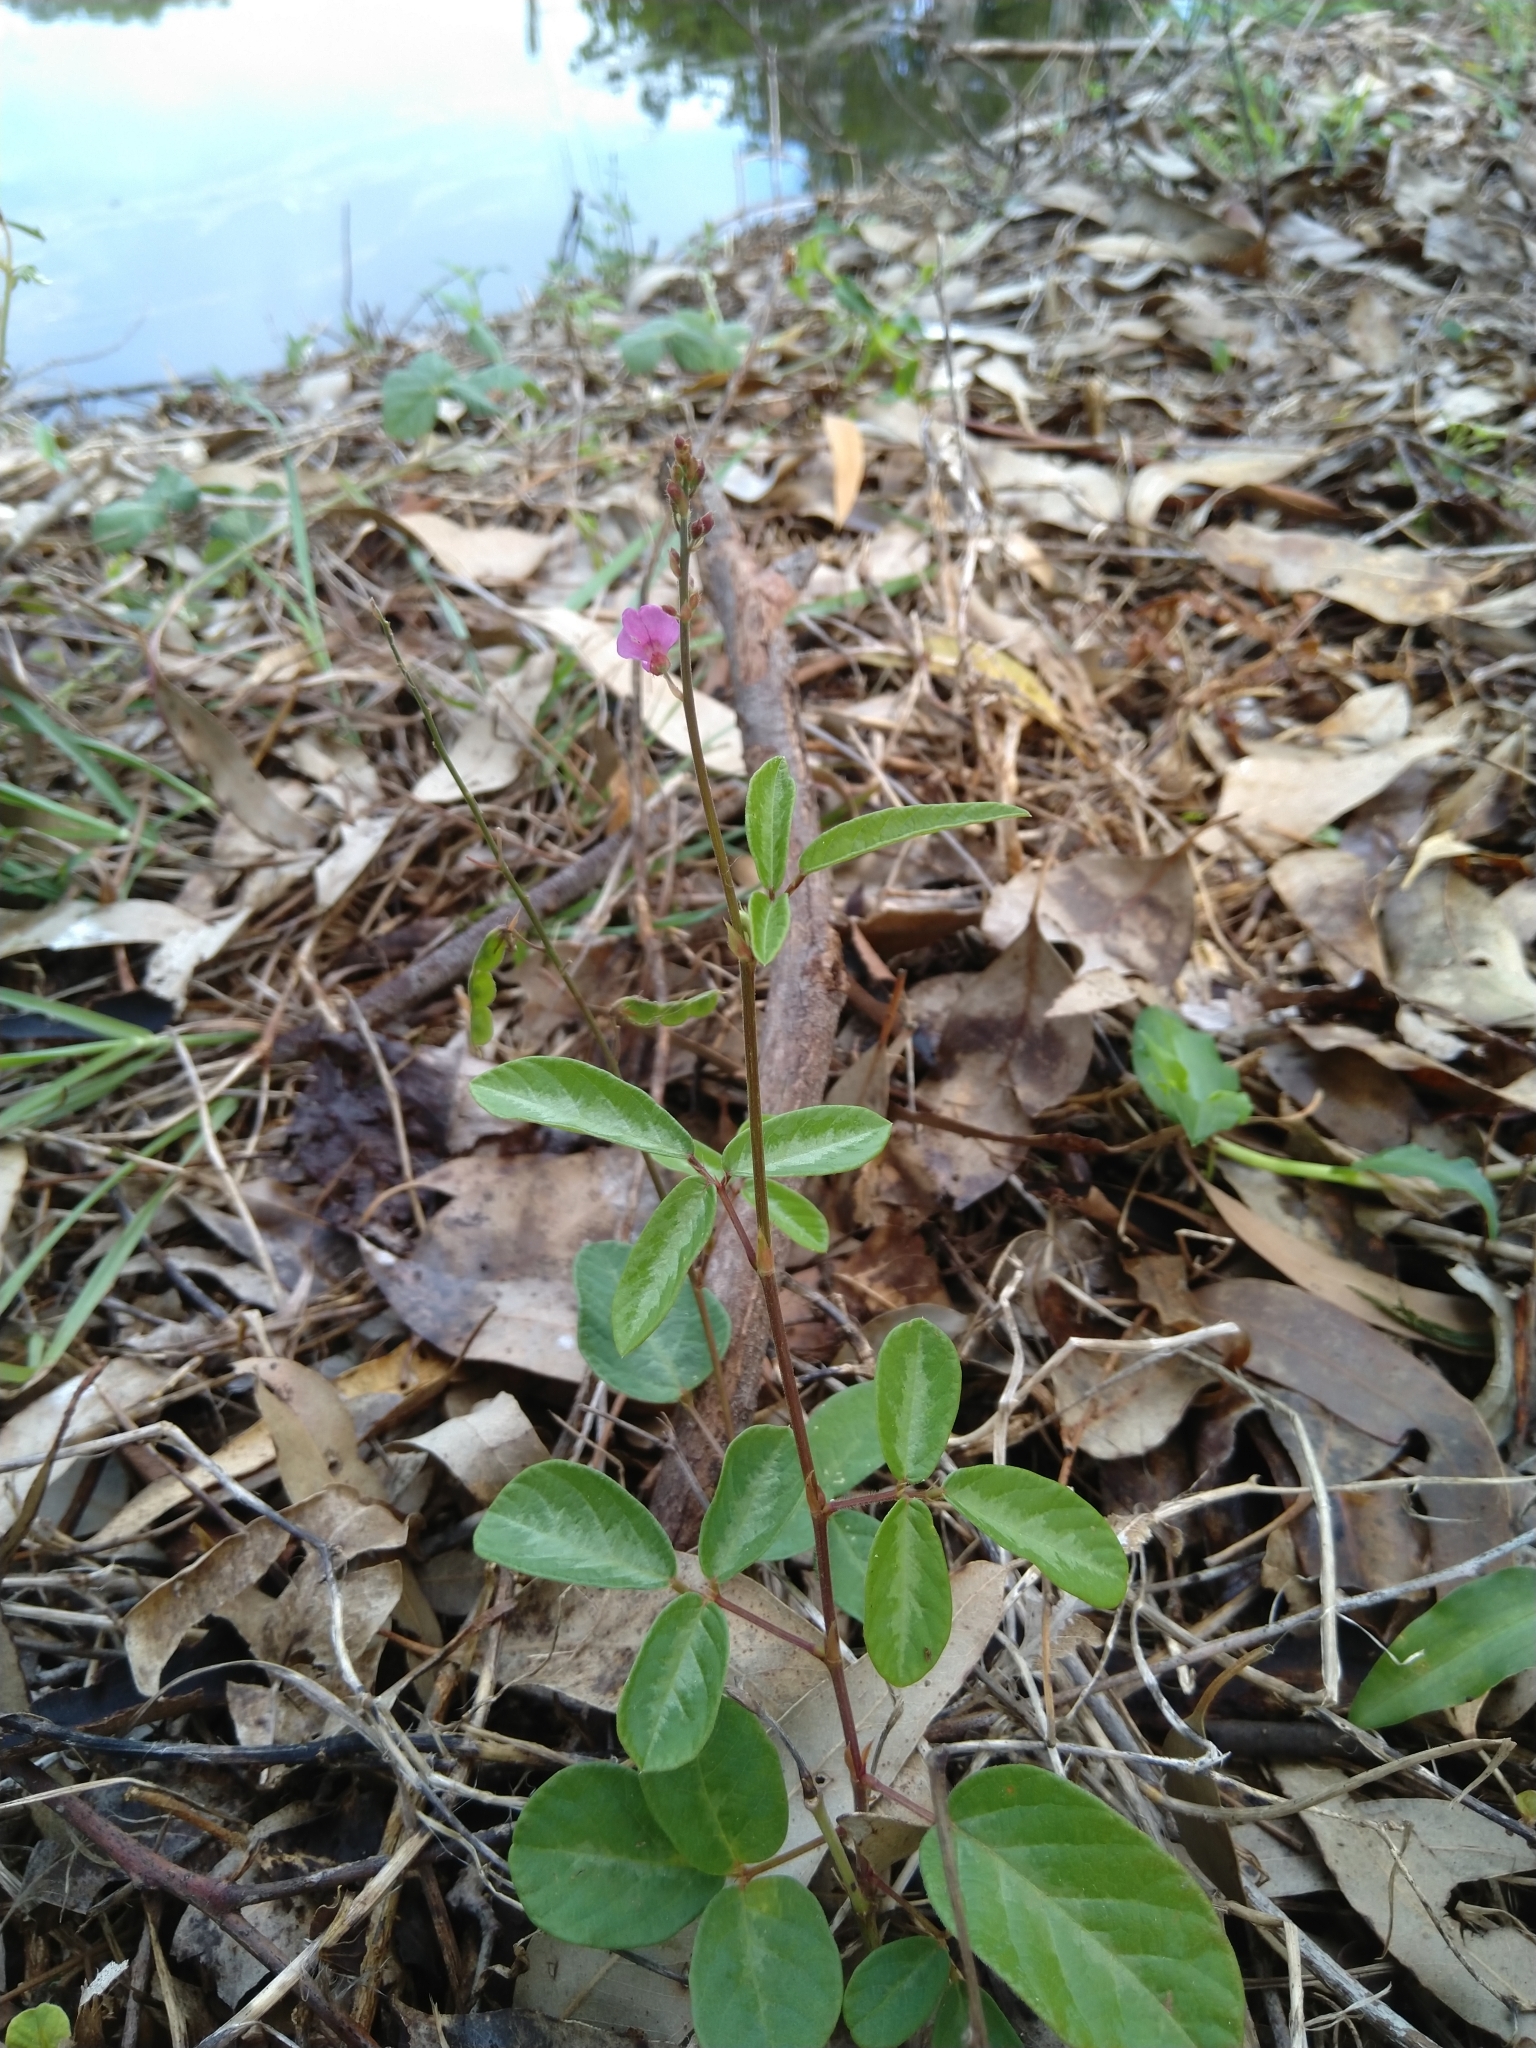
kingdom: Plantae
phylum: Tracheophyta
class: Magnoliopsida
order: Fabales
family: Fabaceae
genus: Desmodium
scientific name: Desmodium incanum
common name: Tickclover
